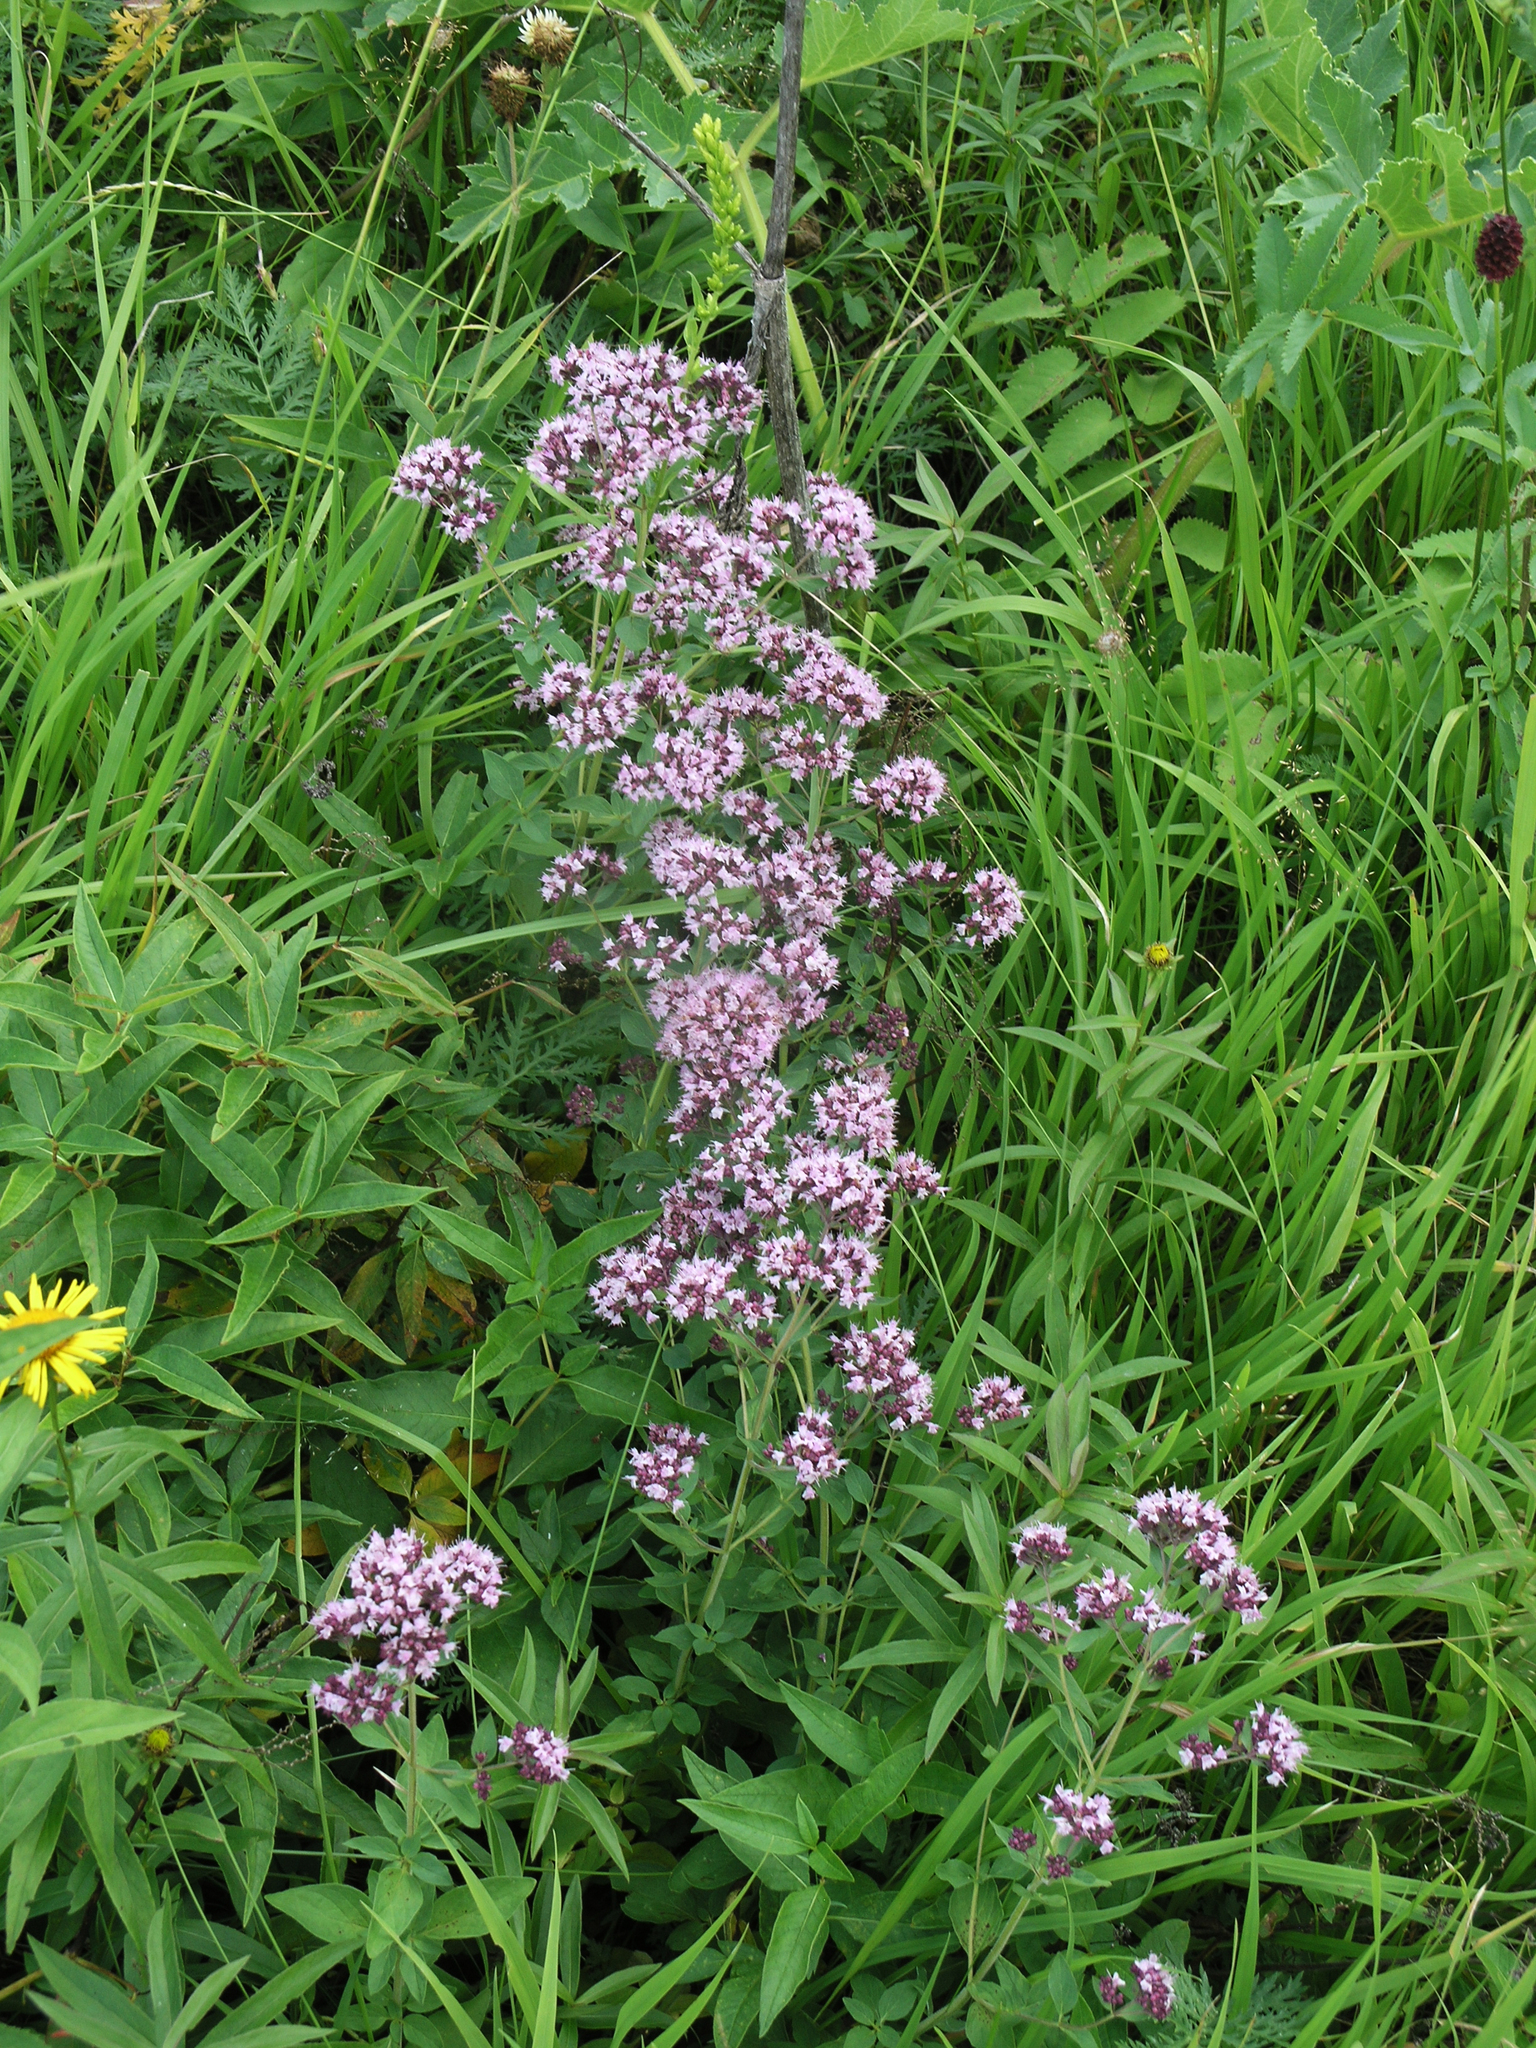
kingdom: Plantae
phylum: Tracheophyta
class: Magnoliopsida
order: Lamiales
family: Lamiaceae
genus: Origanum
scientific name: Origanum vulgare
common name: Wild marjoram
